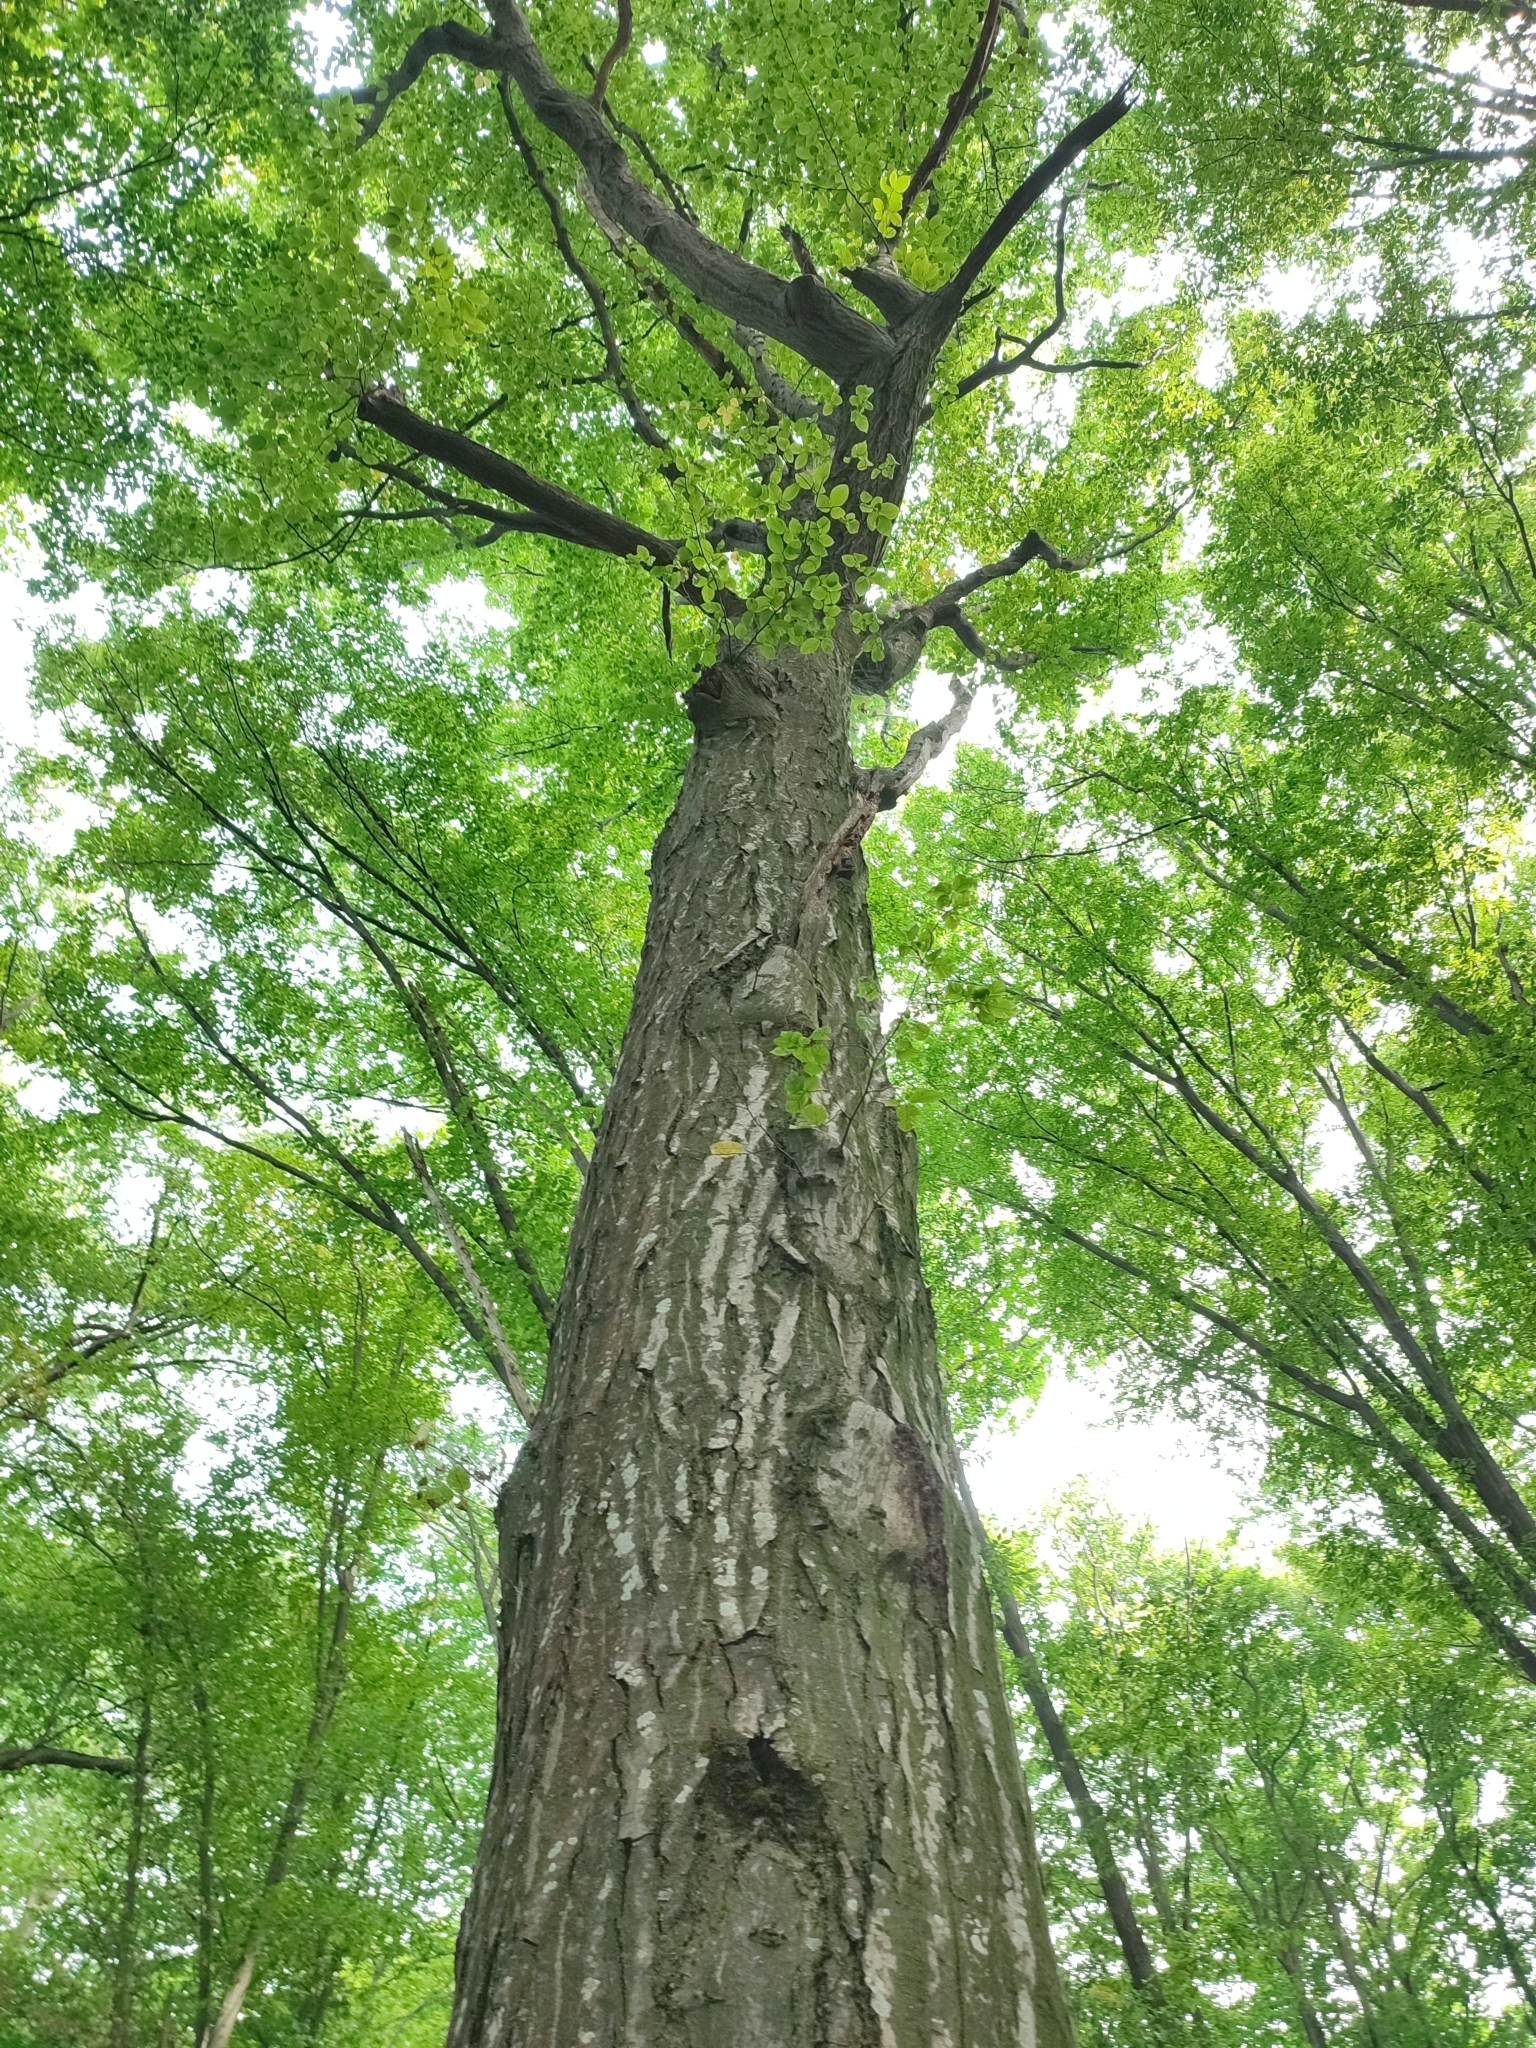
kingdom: Plantae
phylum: Tracheophyta
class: Magnoliopsida
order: Fagales
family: Betulaceae
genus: Carpinus
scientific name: Carpinus betulus
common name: Hornbeam
